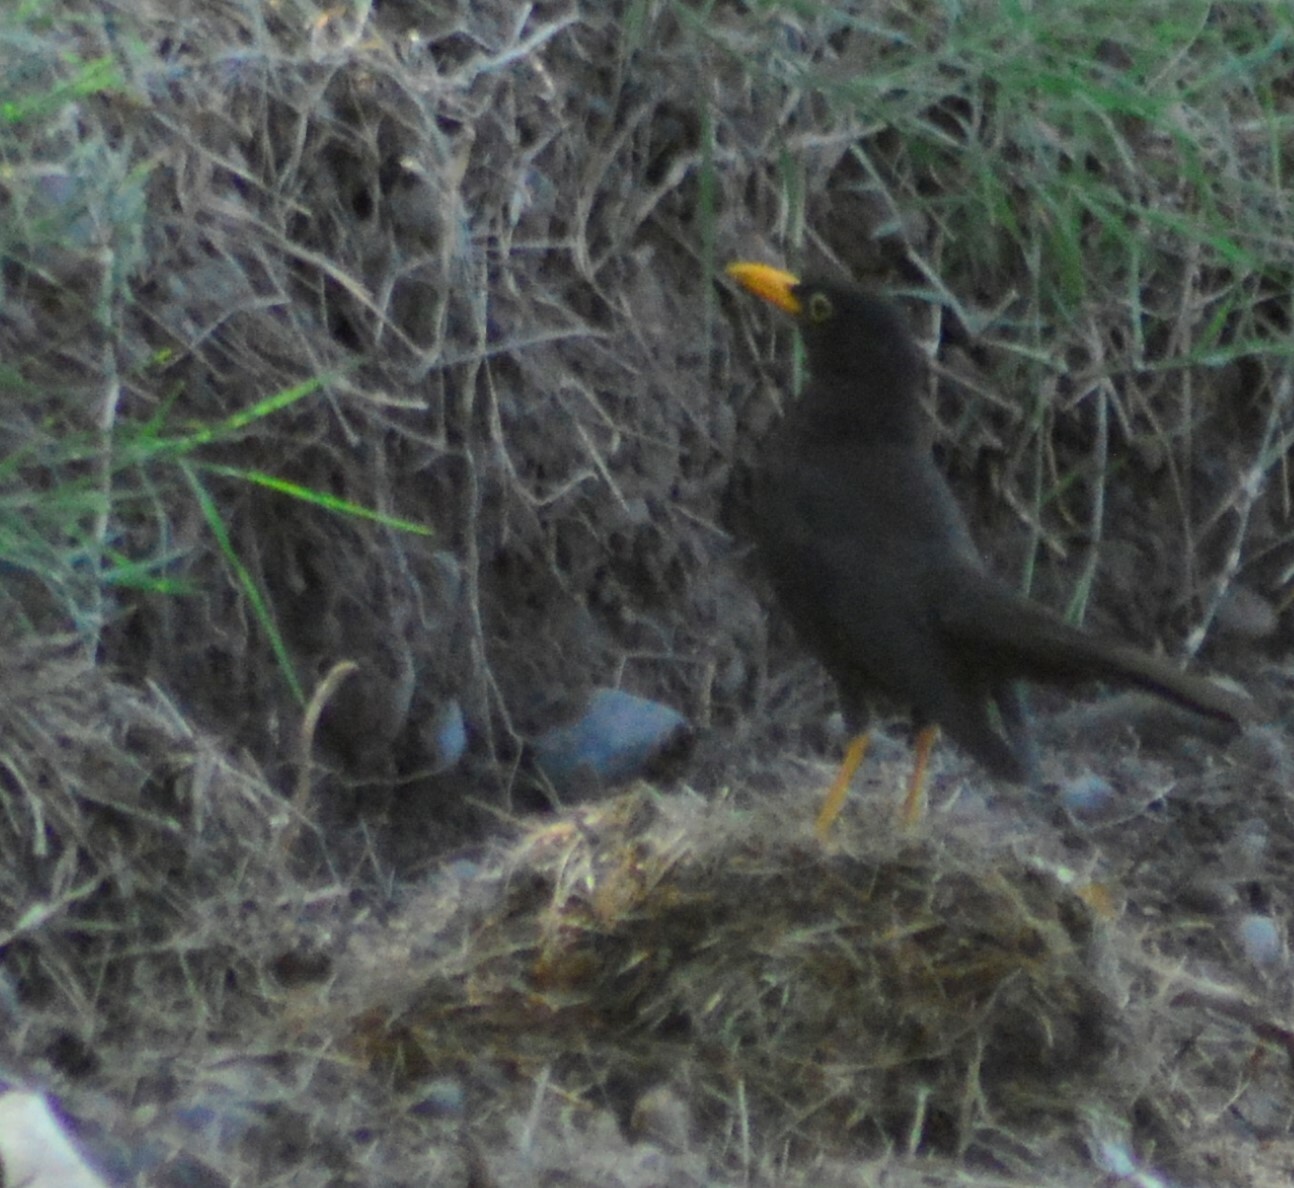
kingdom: Animalia
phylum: Chordata
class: Aves
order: Passeriformes
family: Turdidae
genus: Turdus
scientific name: Turdus chiguanco
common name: Chiguanco thrush
